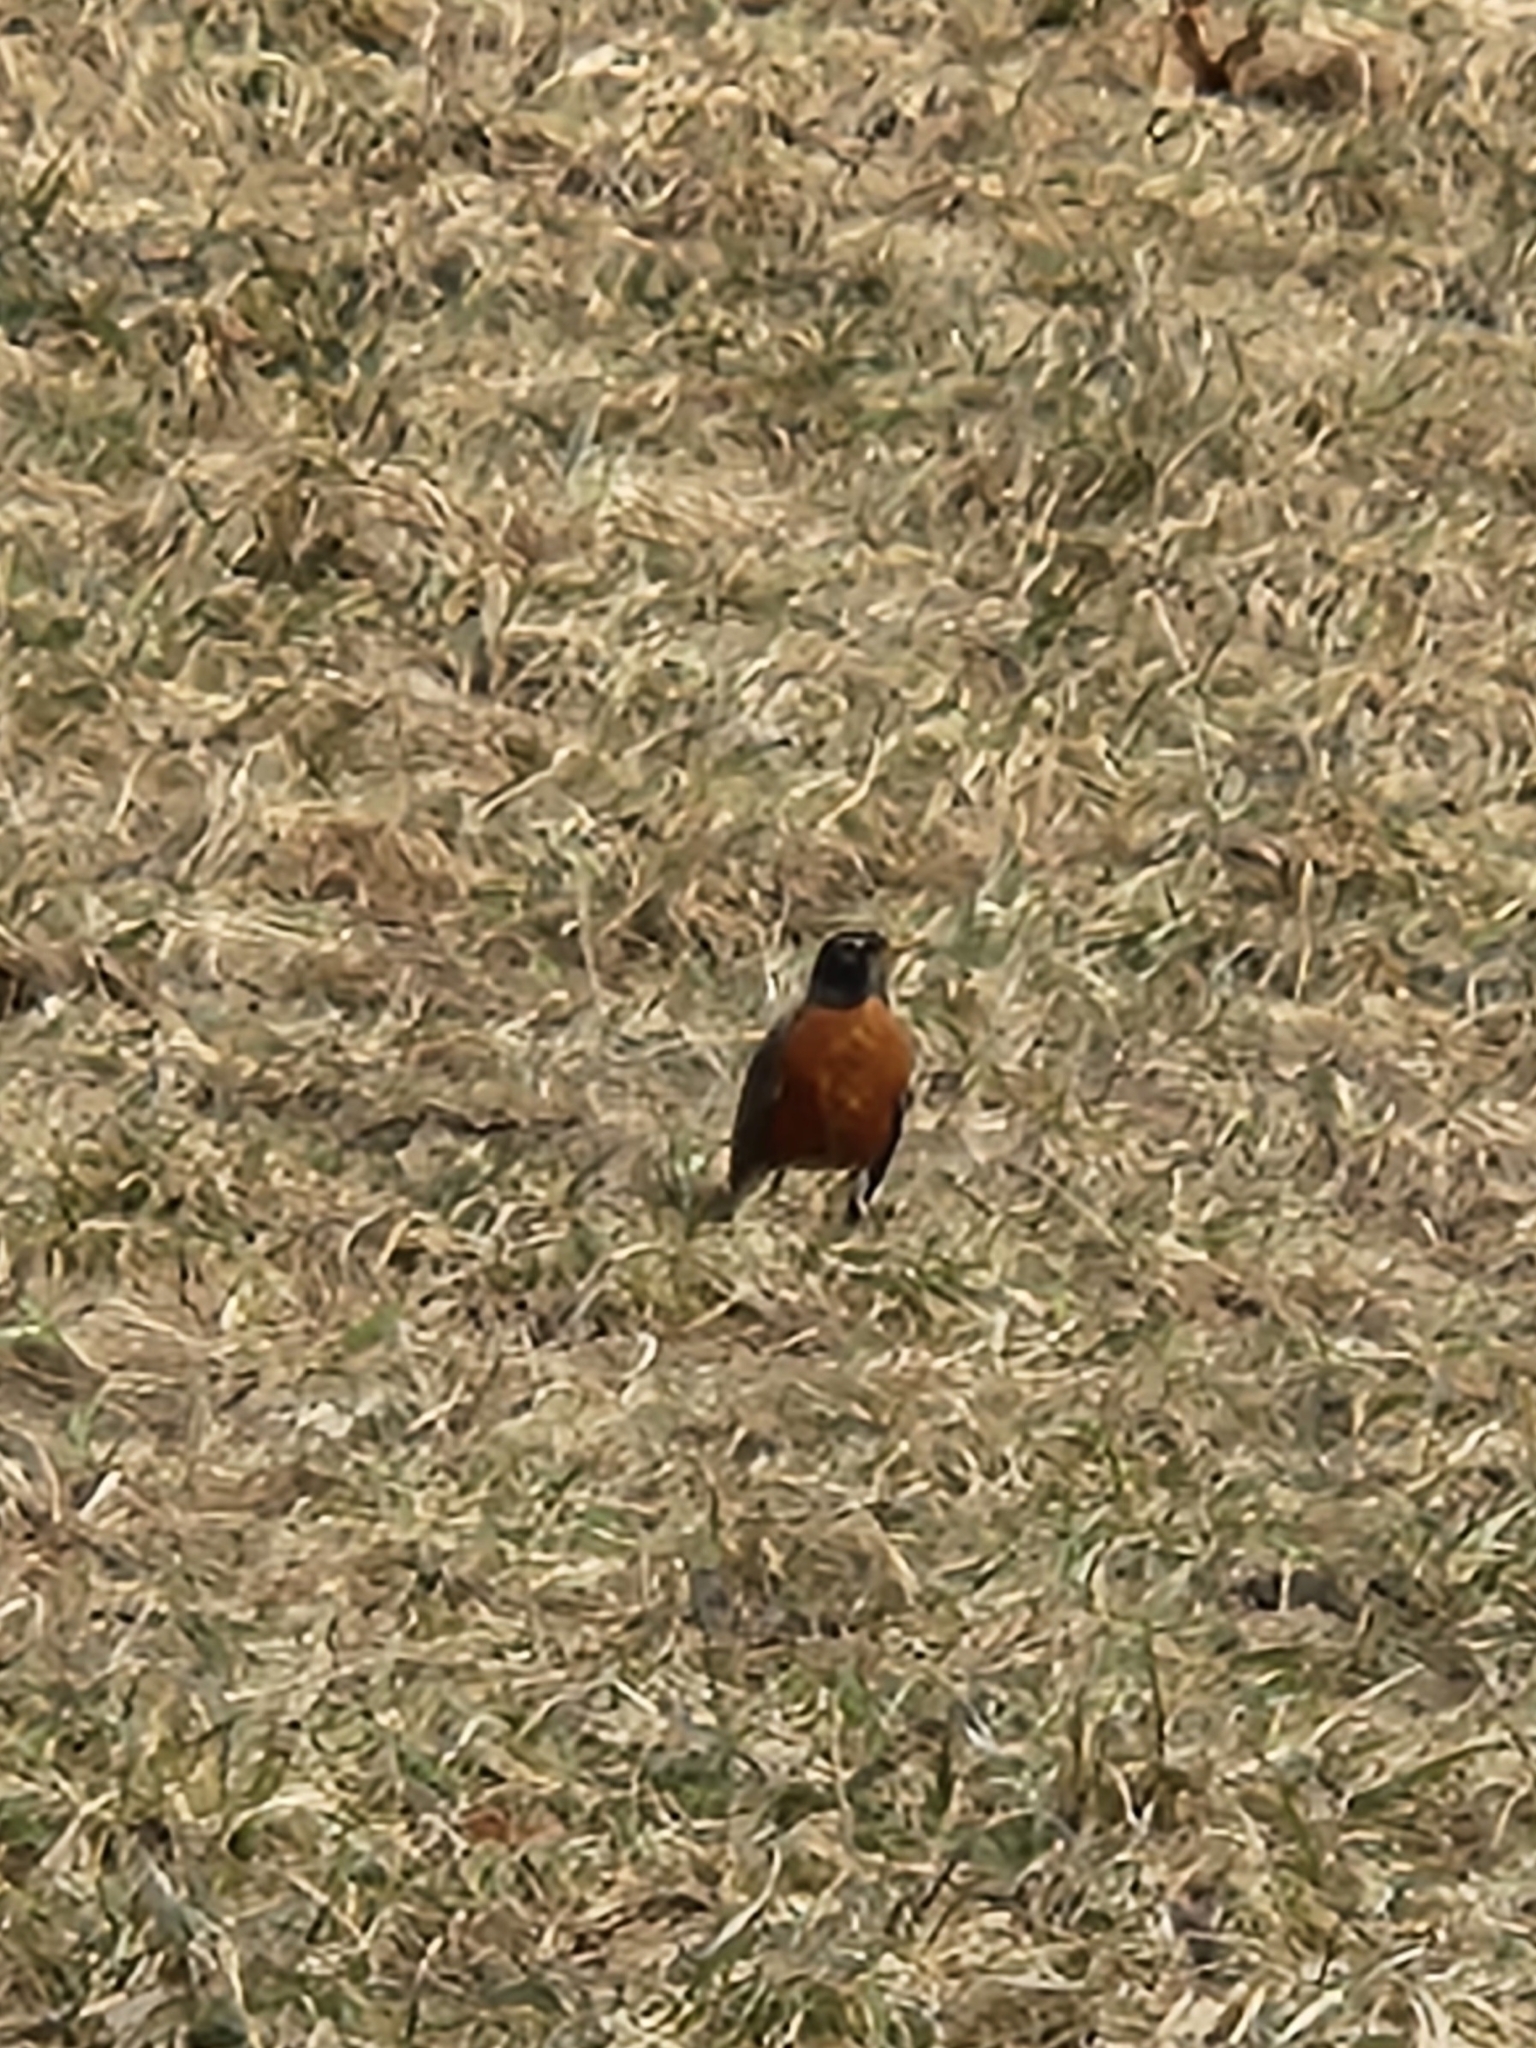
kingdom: Animalia
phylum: Chordata
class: Aves
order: Passeriformes
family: Turdidae
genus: Turdus
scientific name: Turdus migratorius
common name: American robin
